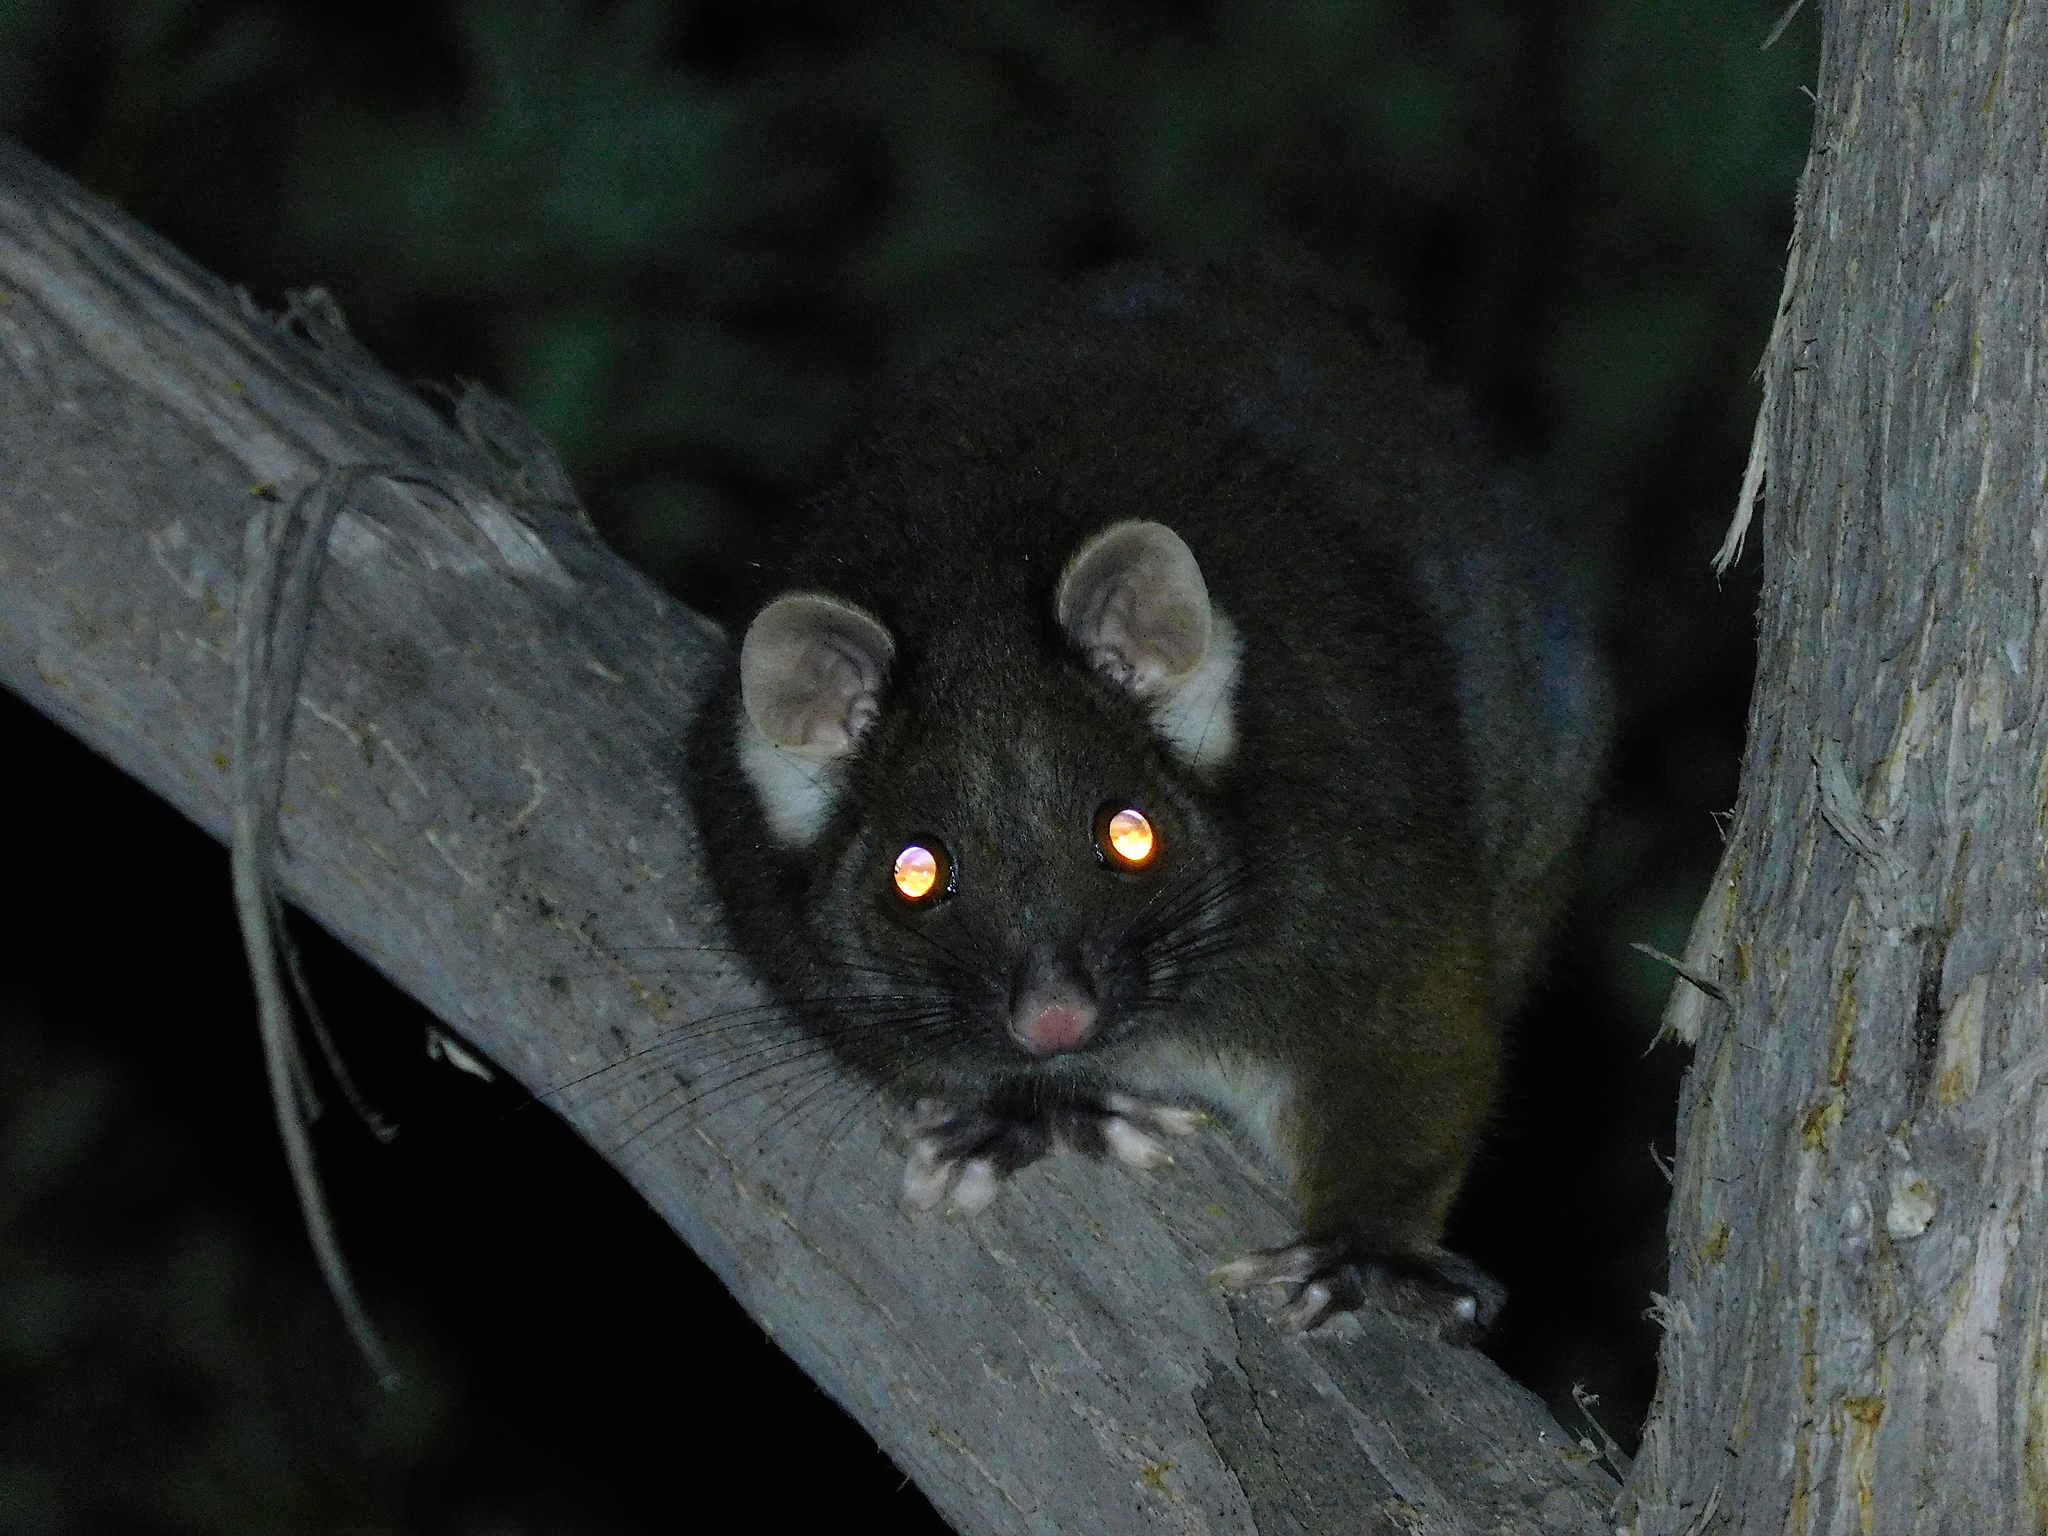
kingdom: Animalia
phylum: Chordata
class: Mammalia
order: Diprotodontia
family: Pseudocheiridae
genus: Pseudocheirus
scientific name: Pseudocheirus peregrinus
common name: Common ringtail possum
